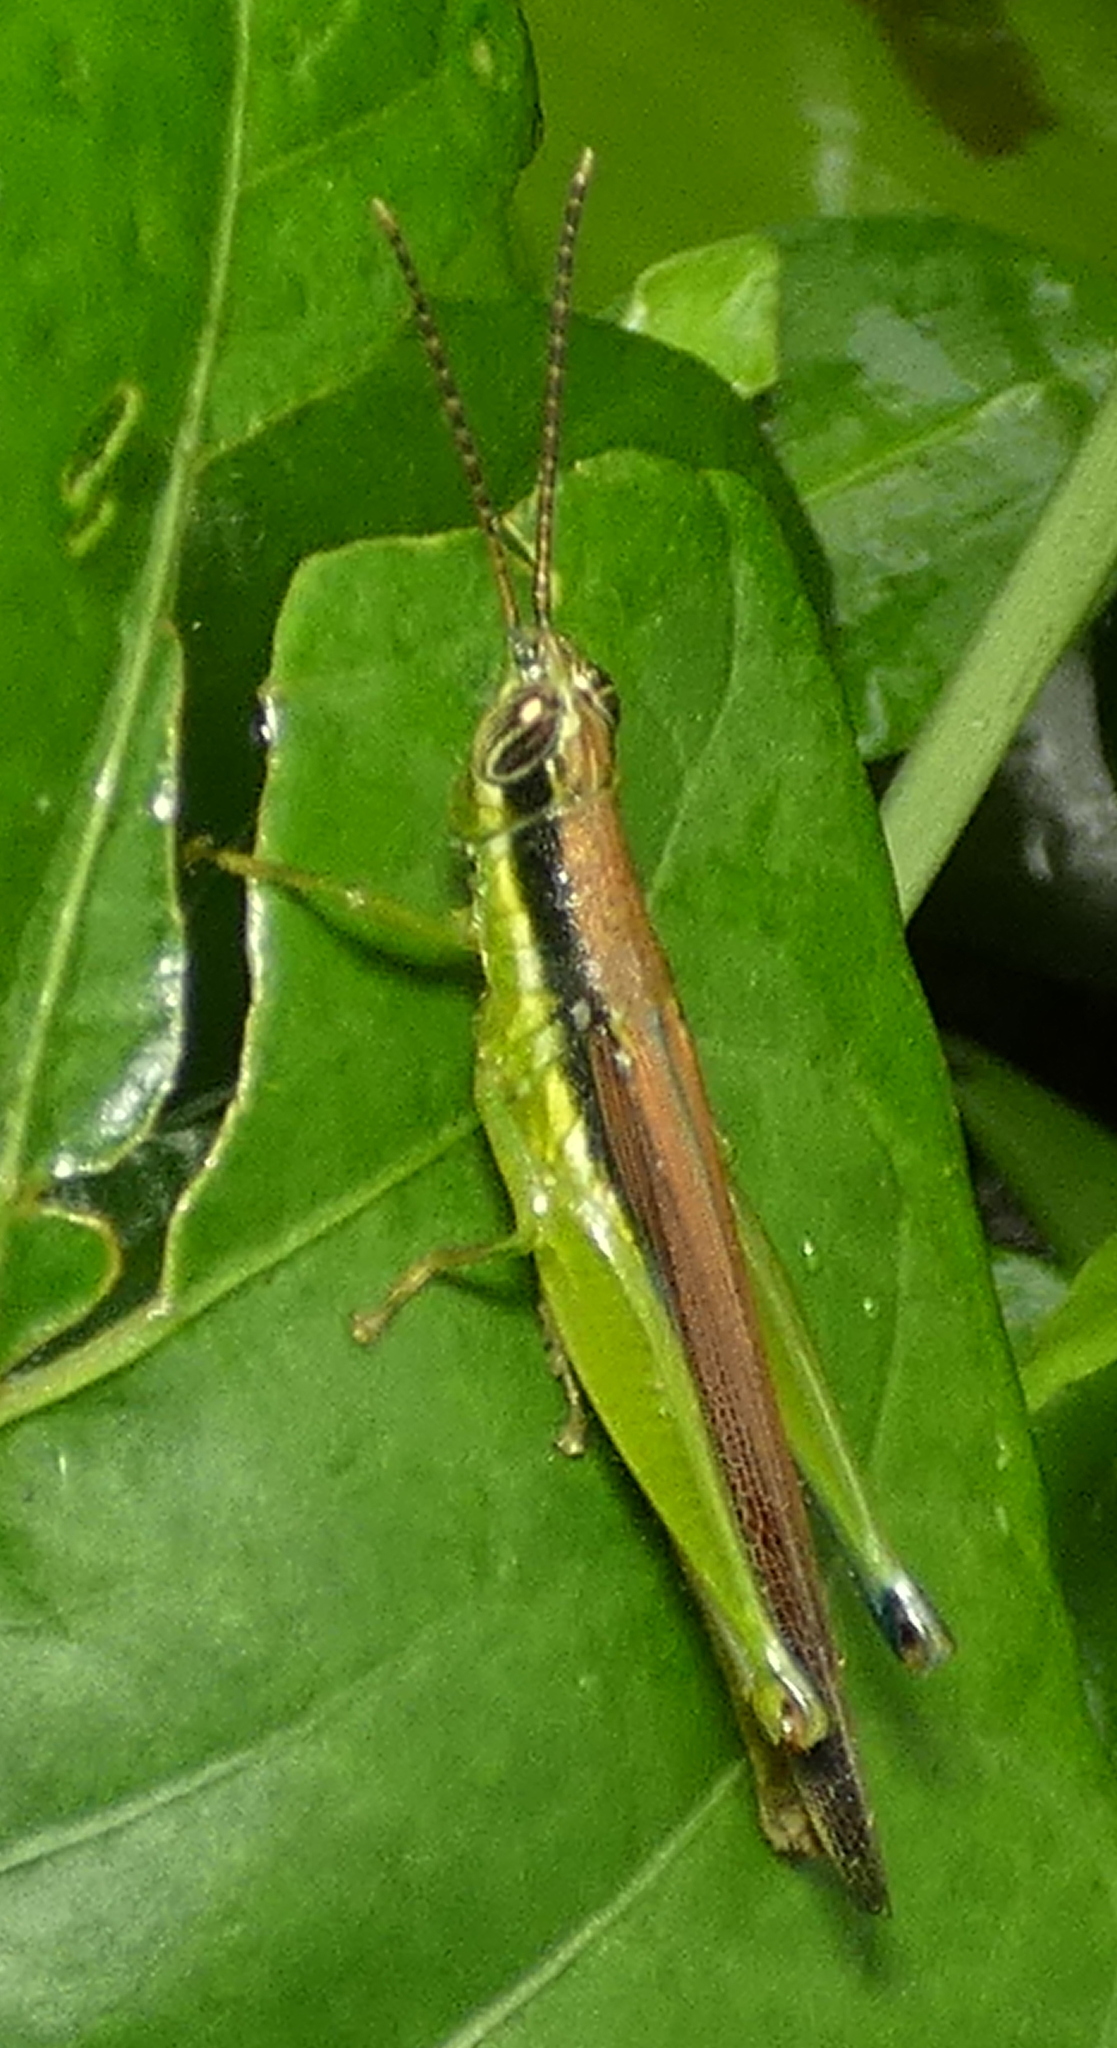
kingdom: Animalia
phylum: Arthropoda
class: Insecta
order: Orthoptera
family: Acrididae
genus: Stenopola
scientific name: Stenopola puncticeps
